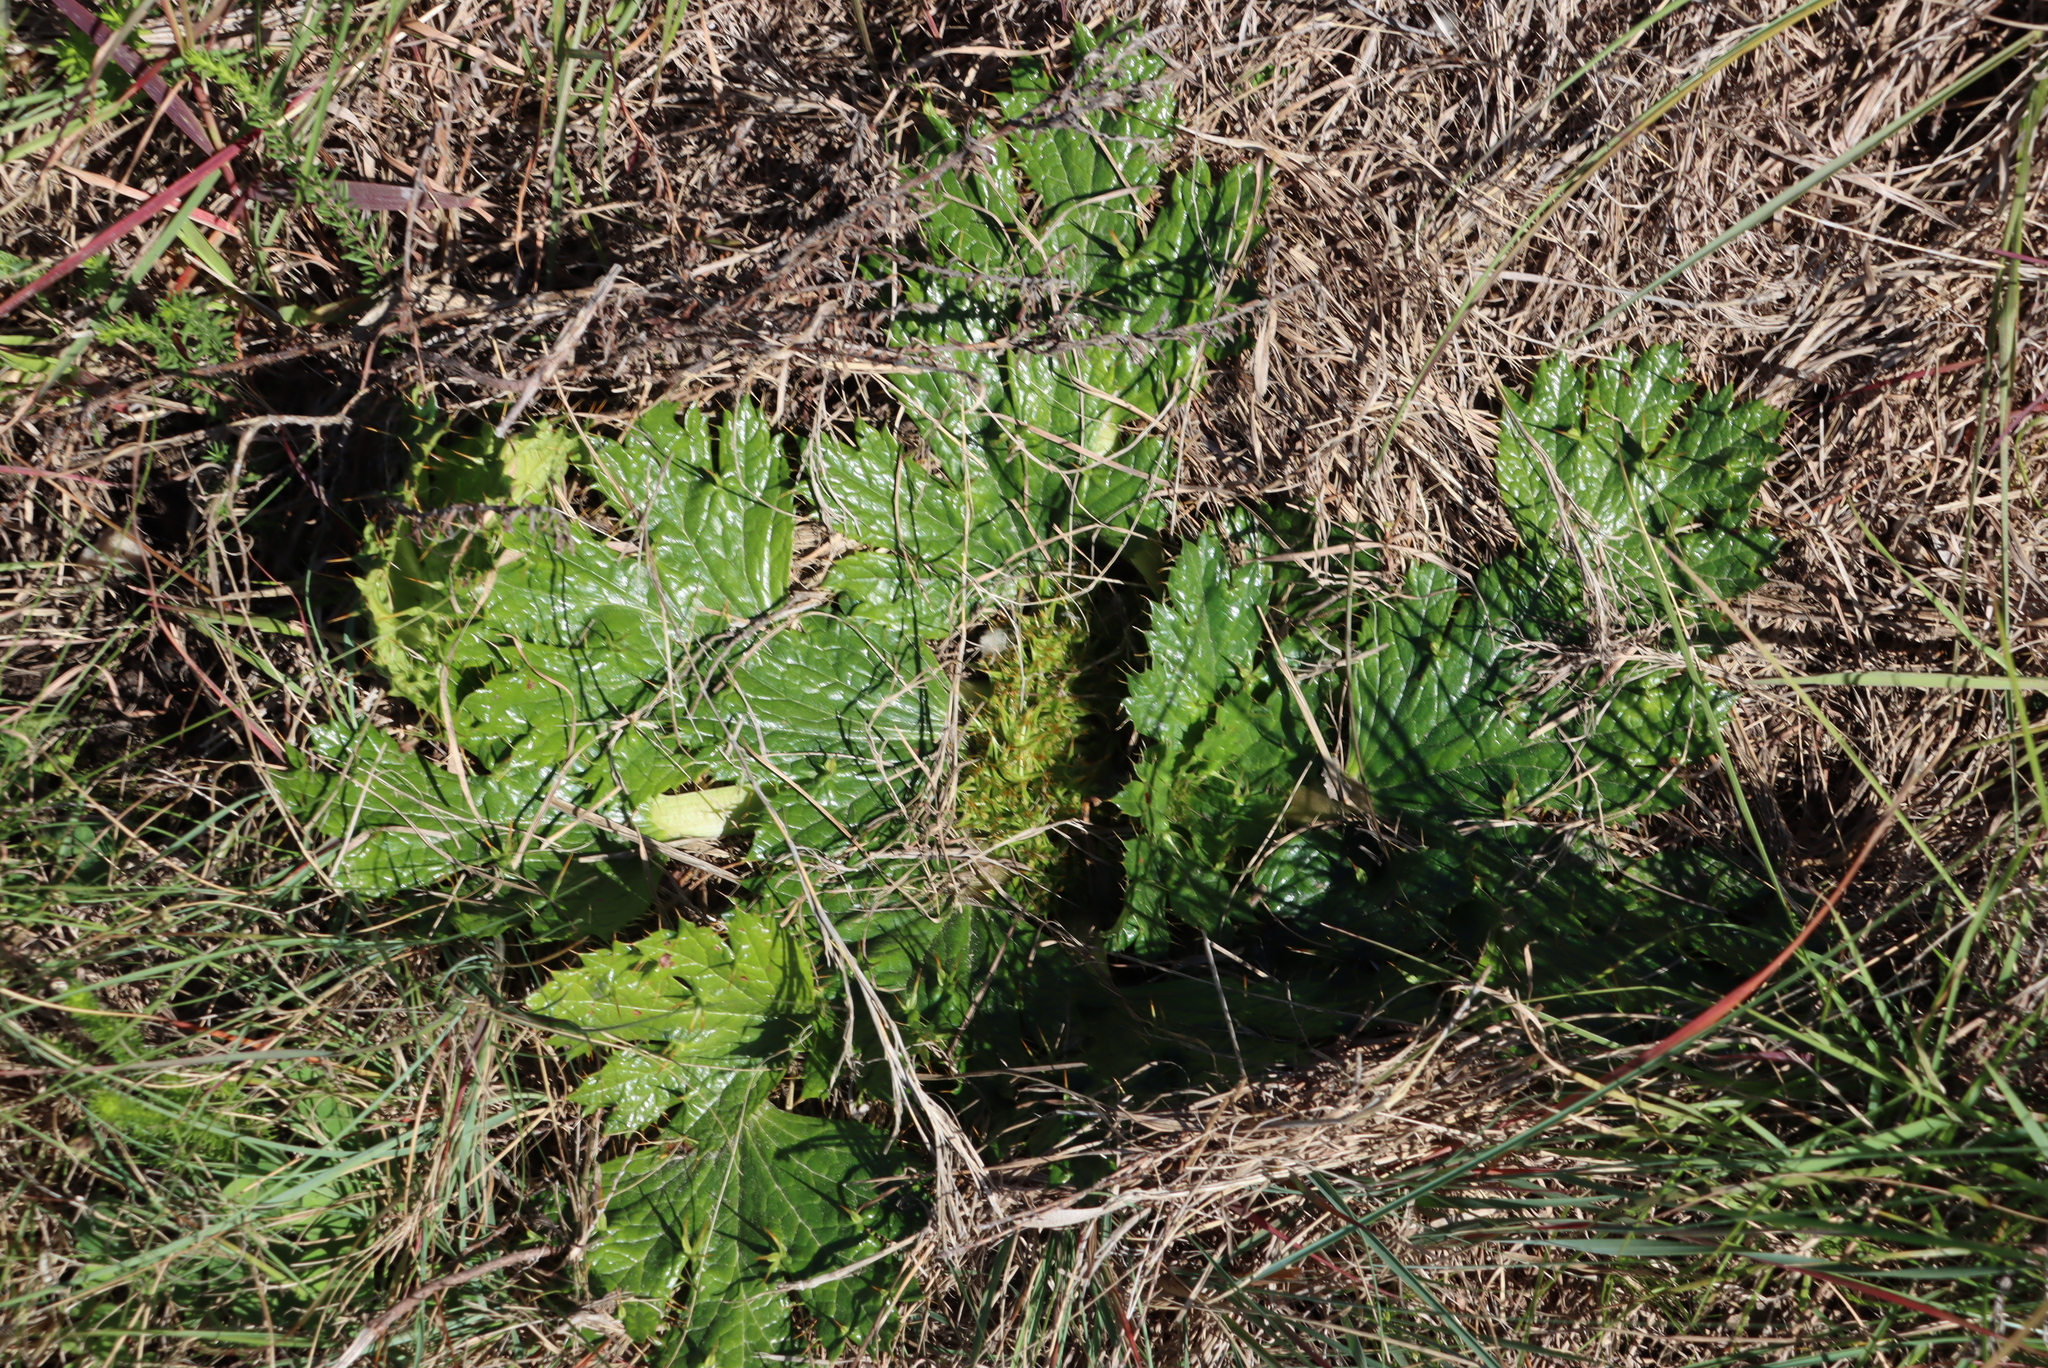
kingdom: Plantae
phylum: Tracheophyta
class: Magnoliopsida
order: Apiales
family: Apiaceae
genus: Arctopus
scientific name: Arctopus echinatus
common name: Platdoring
